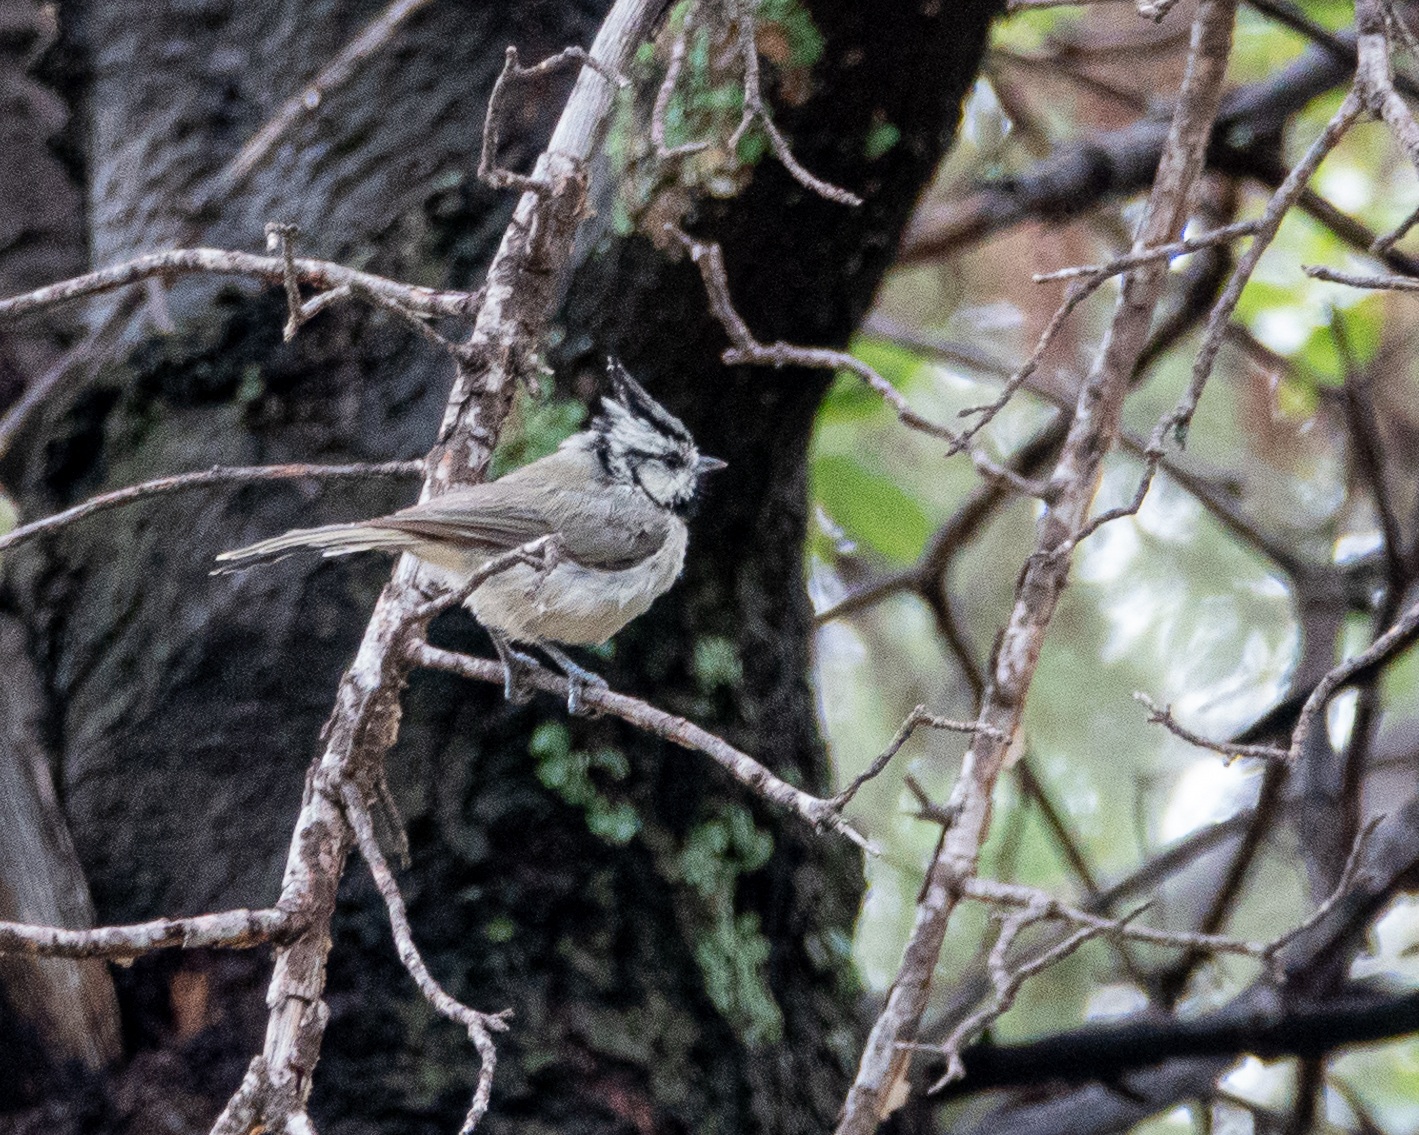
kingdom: Animalia
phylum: Chordata
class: Aves
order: Passeriformes
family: Paridae
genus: Baeolophus
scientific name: Baeolophus wollweberi
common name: Bridled titmouse
